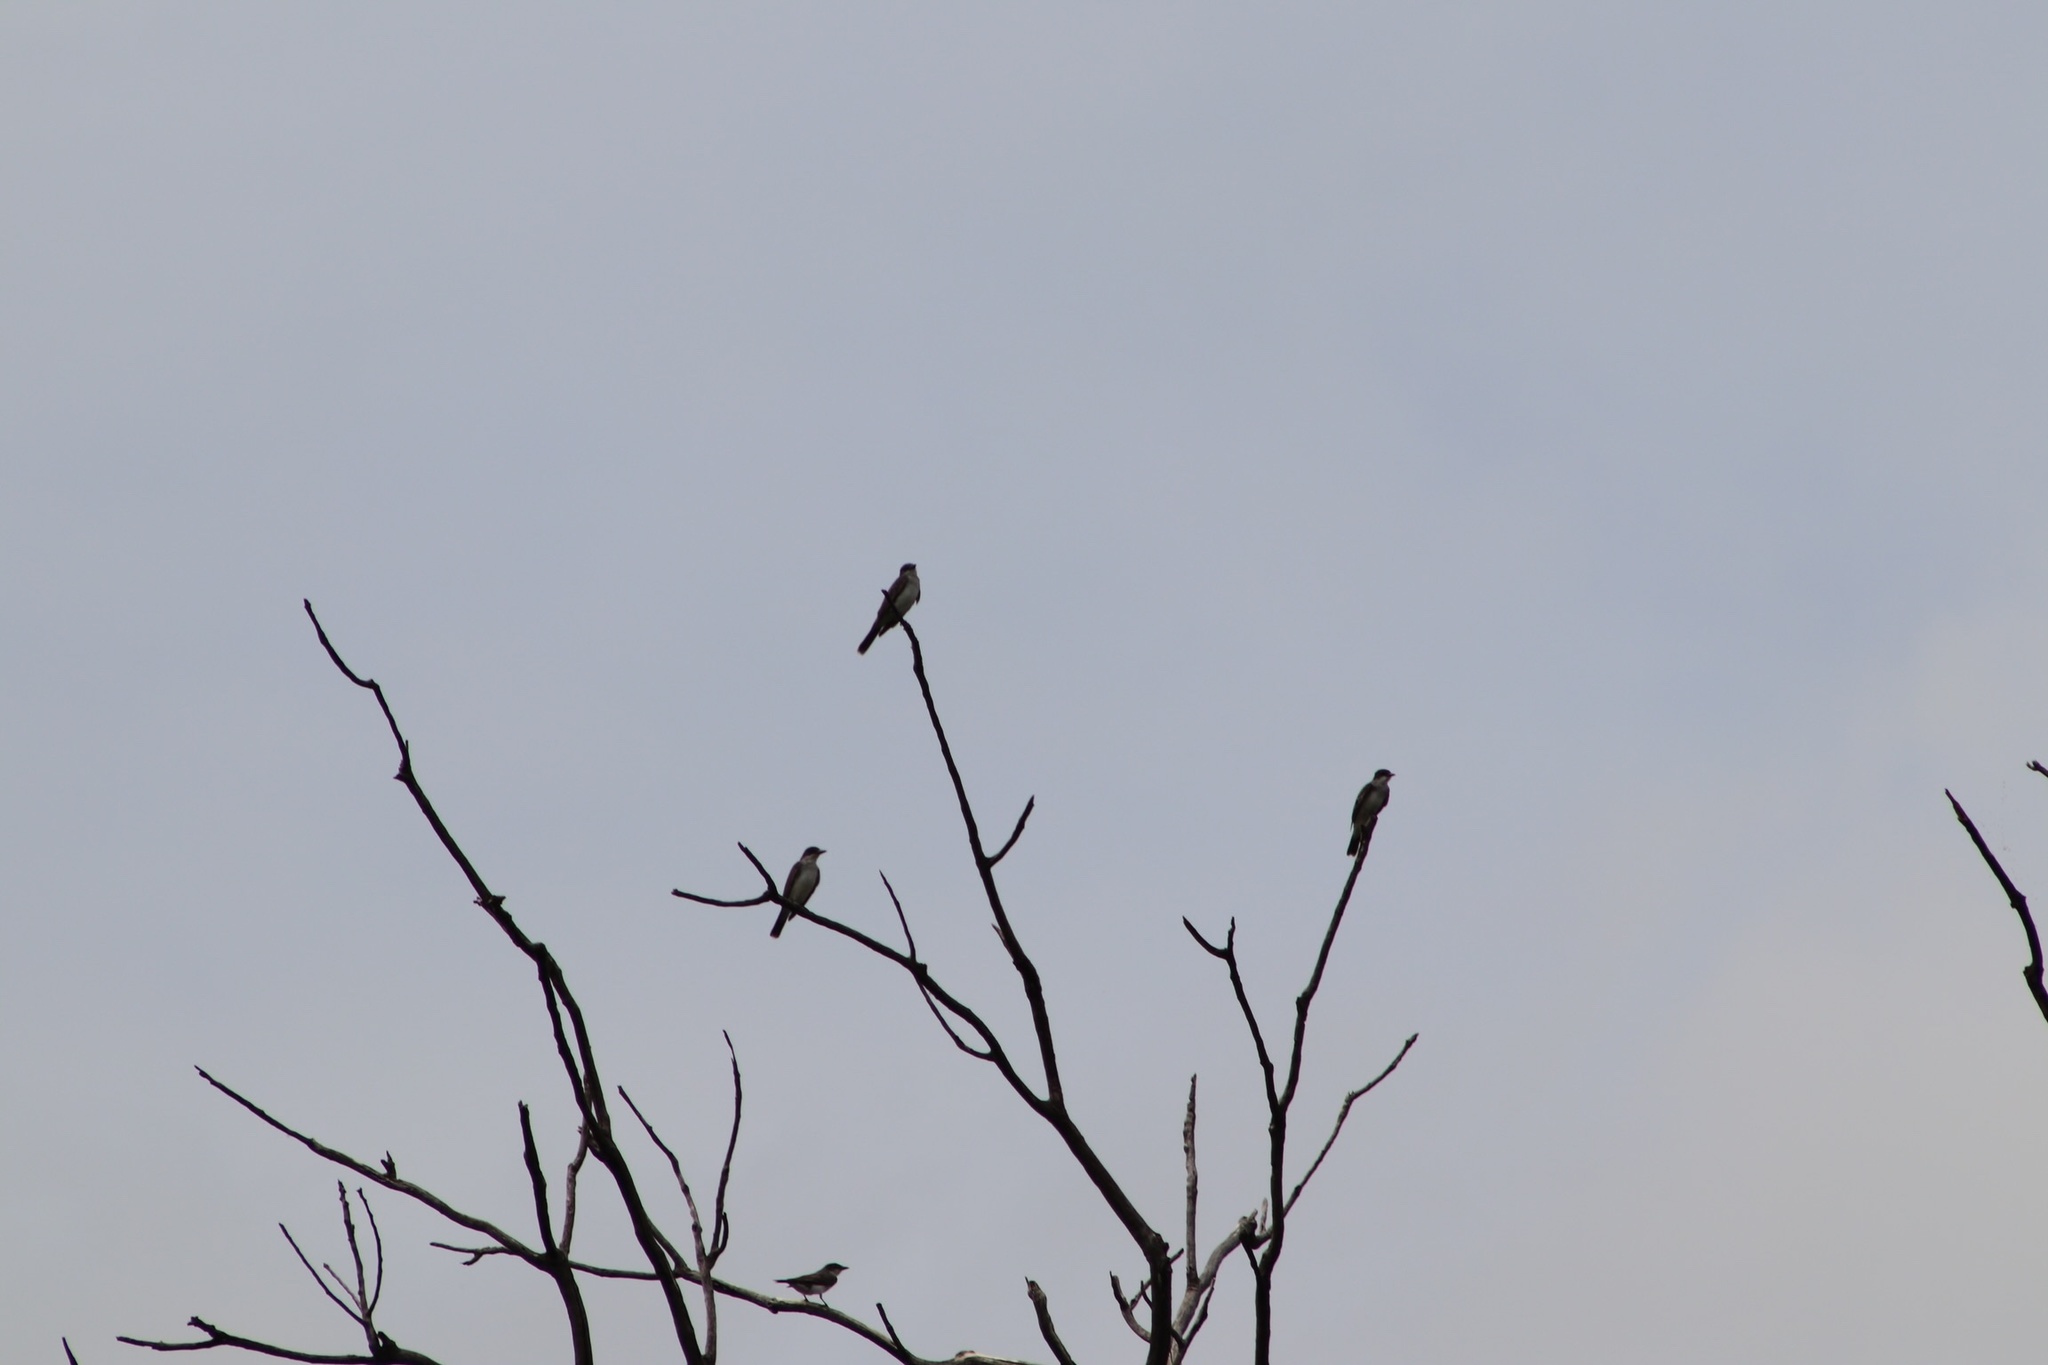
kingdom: Animalia
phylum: Chordata
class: Aves
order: Passeriformes
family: Tyrannidae
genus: Tyrannus
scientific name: Tyrannus tyrannus
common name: Eastern kingbird
